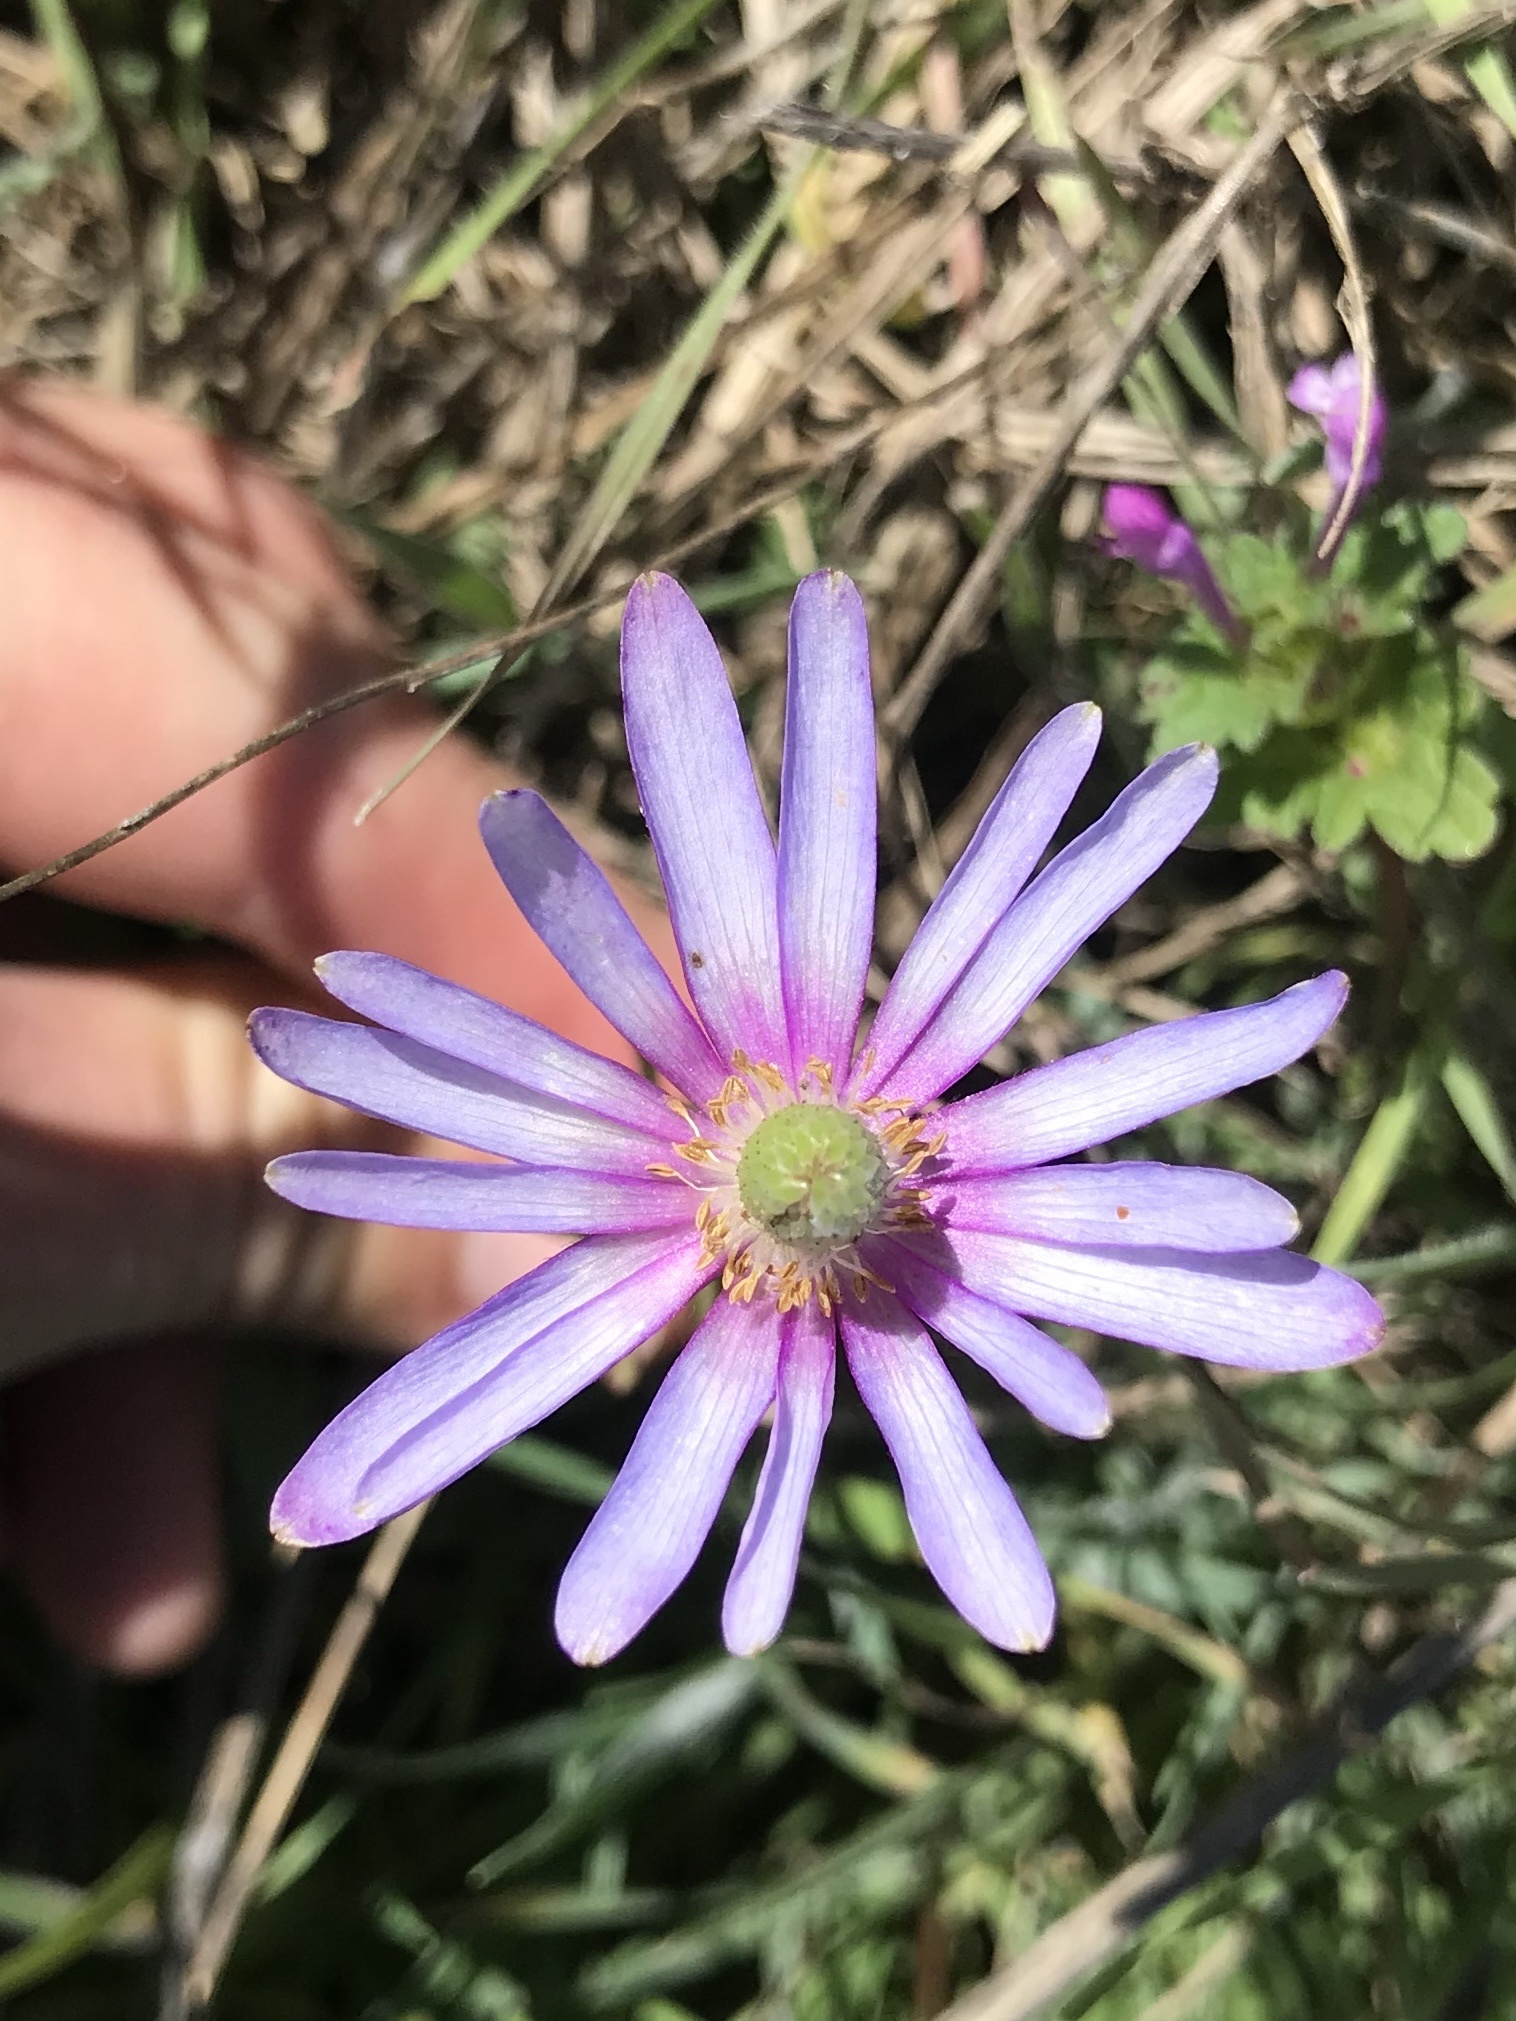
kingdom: Plantae
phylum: Tracheophyta
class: Magnoliopsida
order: Ranunculales
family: Ranunculaceae
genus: Anemone
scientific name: Anemone berlandieri
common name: Ten-petal anemone
